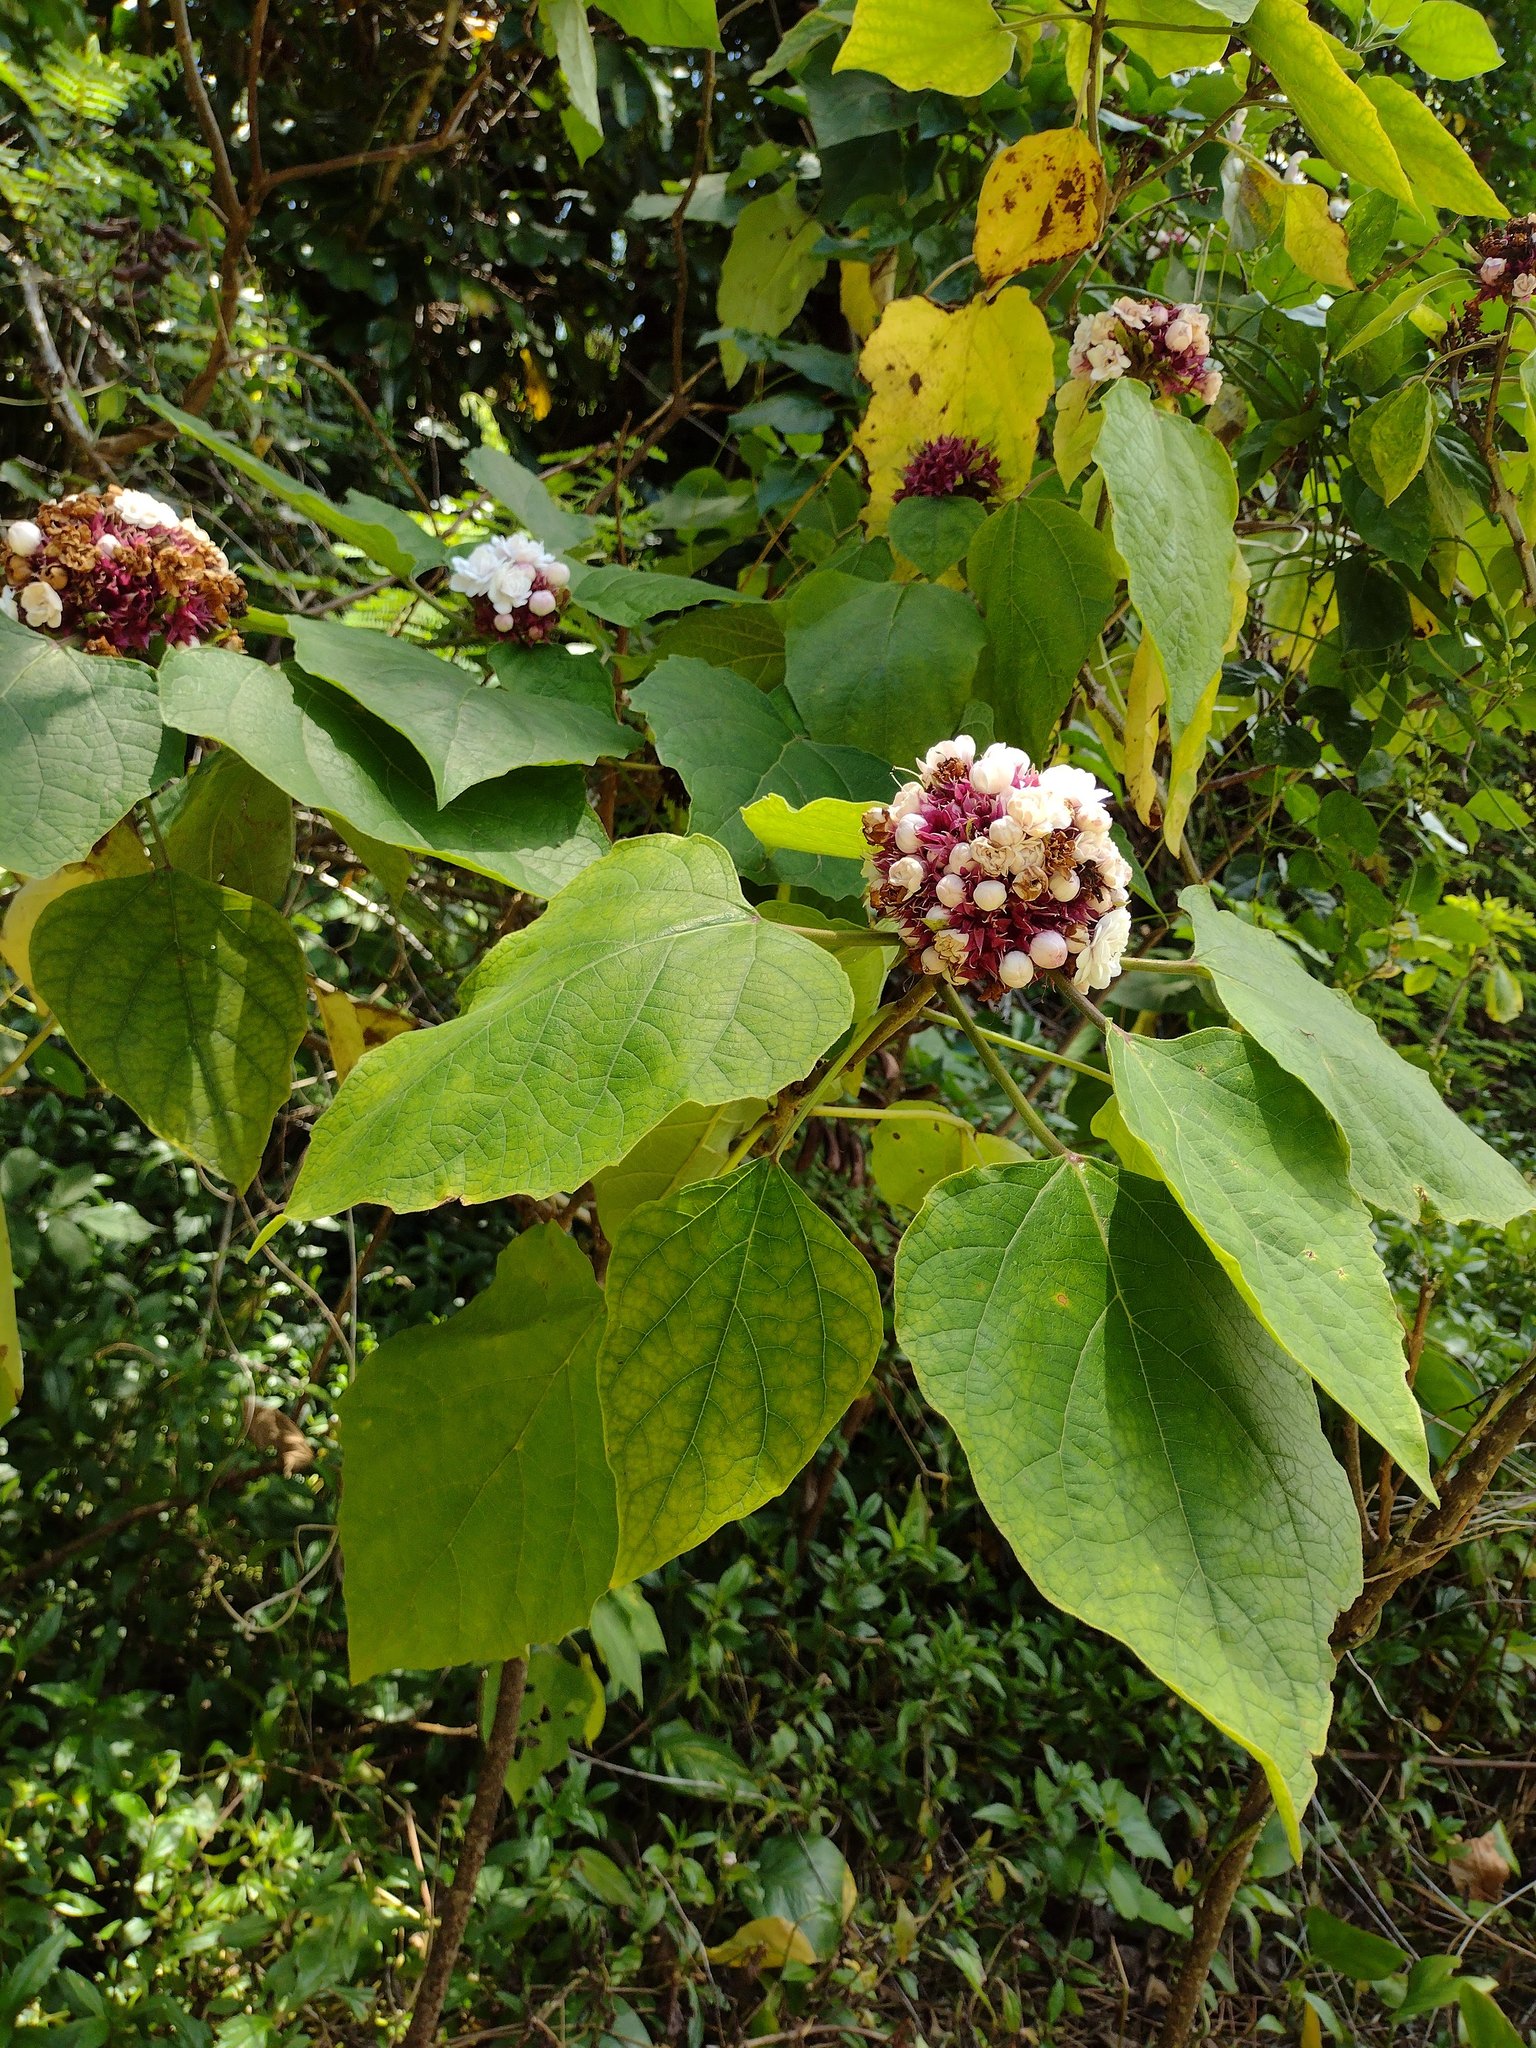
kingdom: Plantae
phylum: Tracheophyta
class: Magnoliopsida
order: Lamiales
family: Lamiaceae
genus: Clerodendrum
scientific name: Clerodendrum chinense
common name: Stickbush
